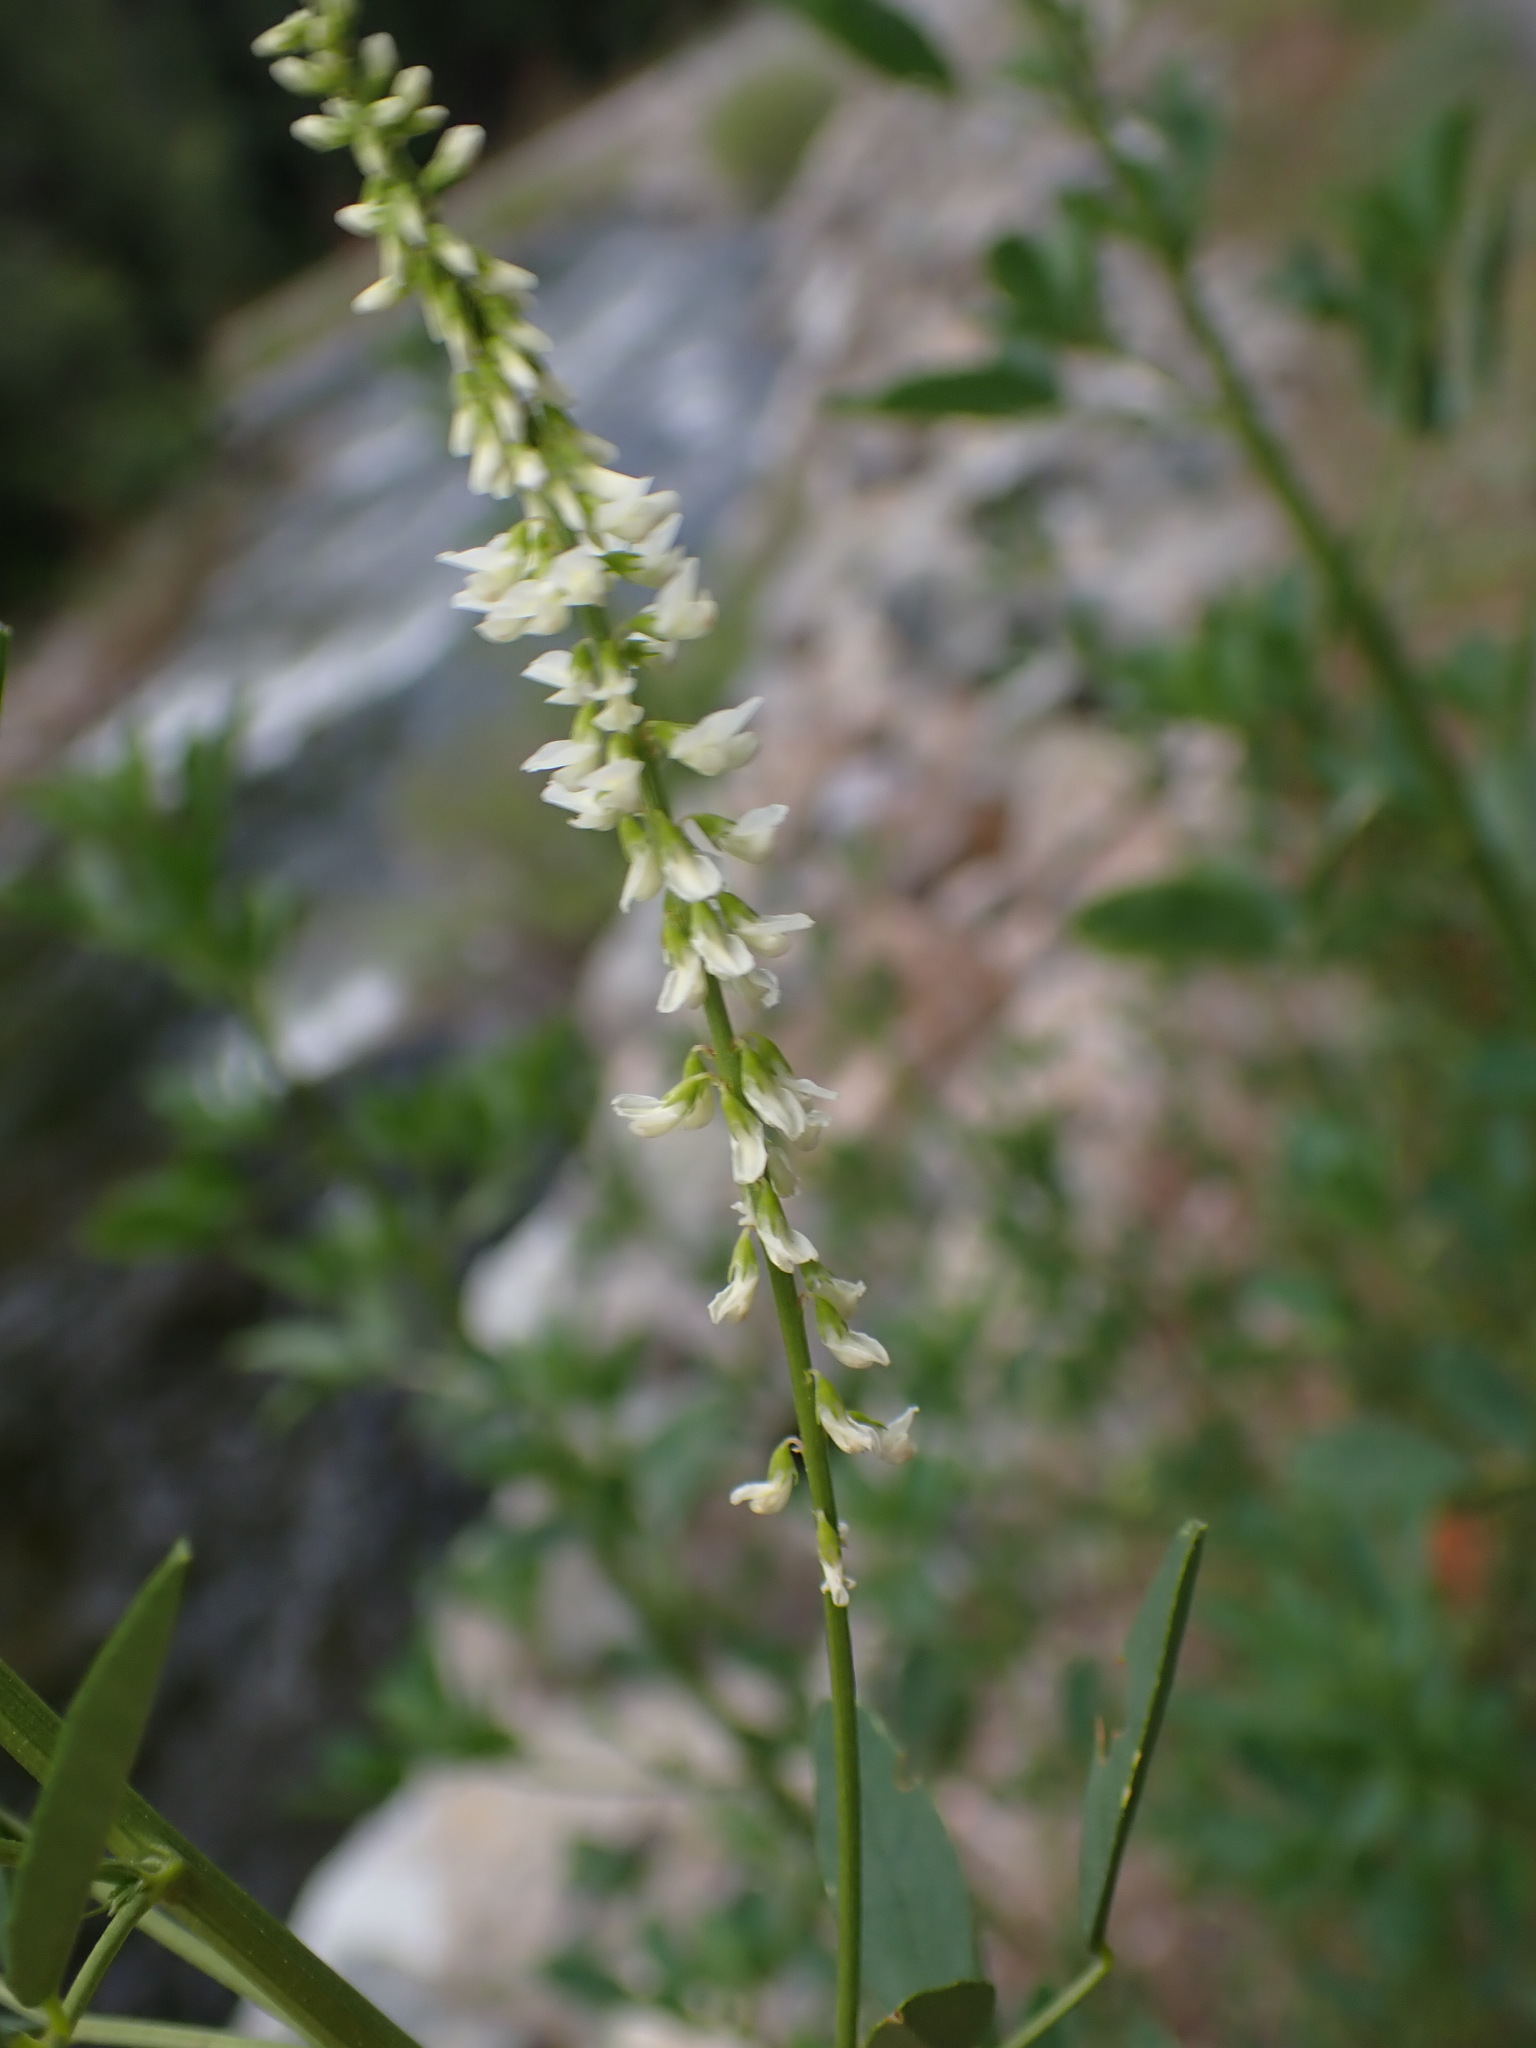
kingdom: Plantae
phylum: Tracheophyta
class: Magnoliopsida
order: Fabales
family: Fabaceae
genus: Melilotus
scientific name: Melilotus albus
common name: White melilot
